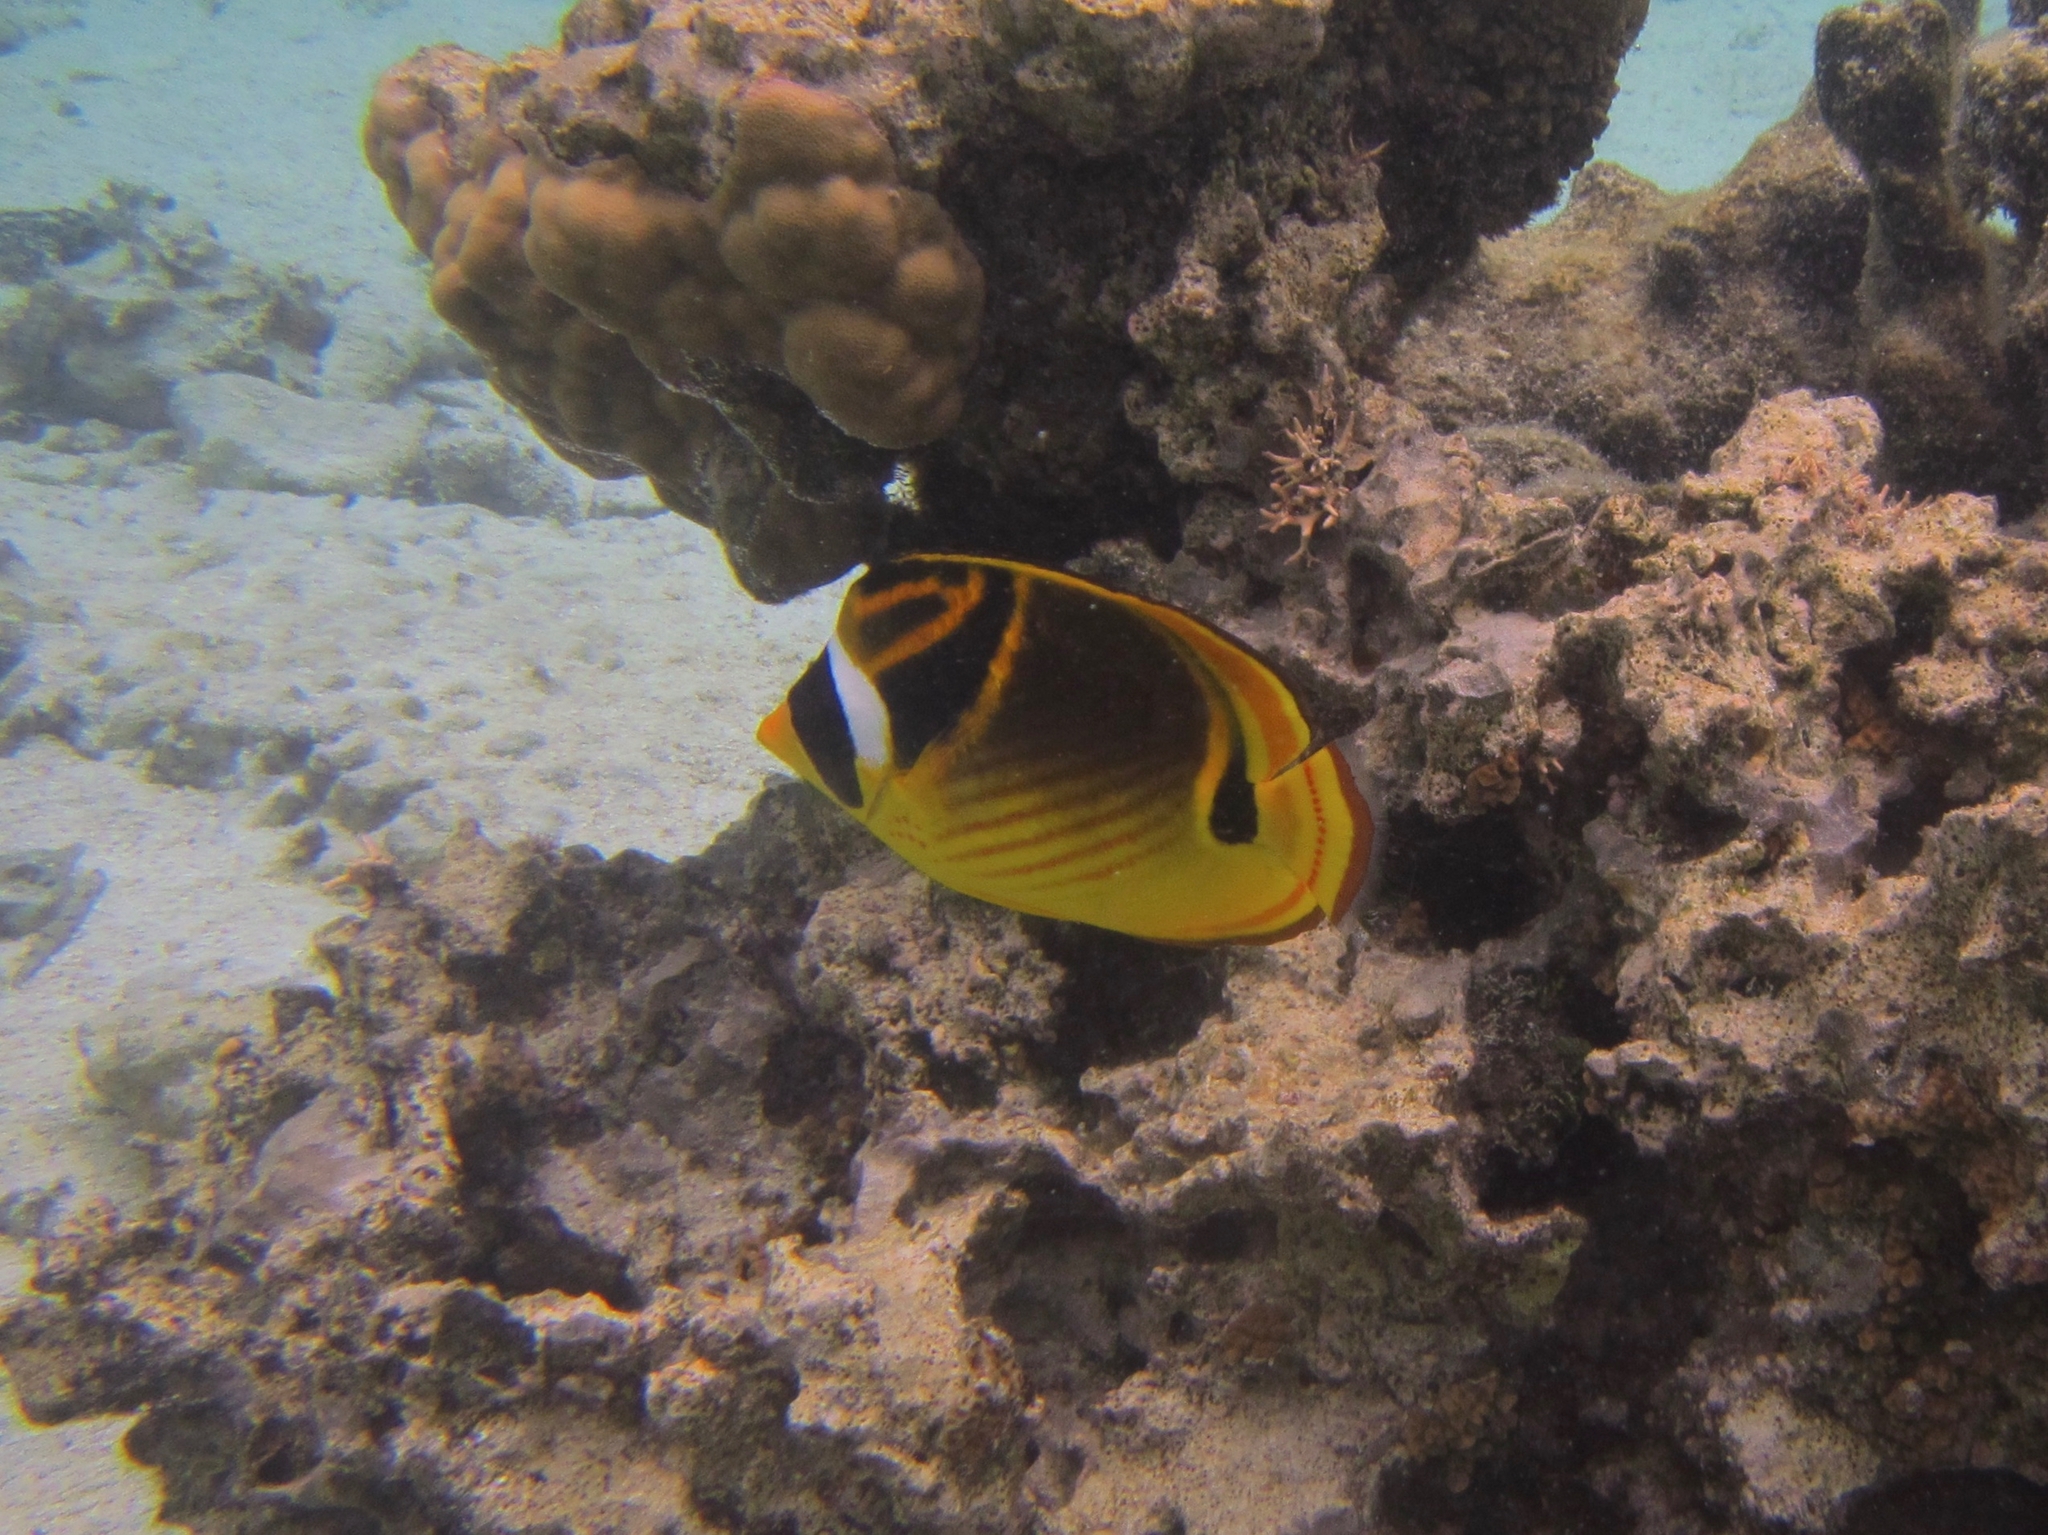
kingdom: Animalia
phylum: Chordata
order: Perciformes
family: Chaetodontidae
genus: Chaetodon
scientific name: Chaetodon lunula
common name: Raccoon butterflyfish
